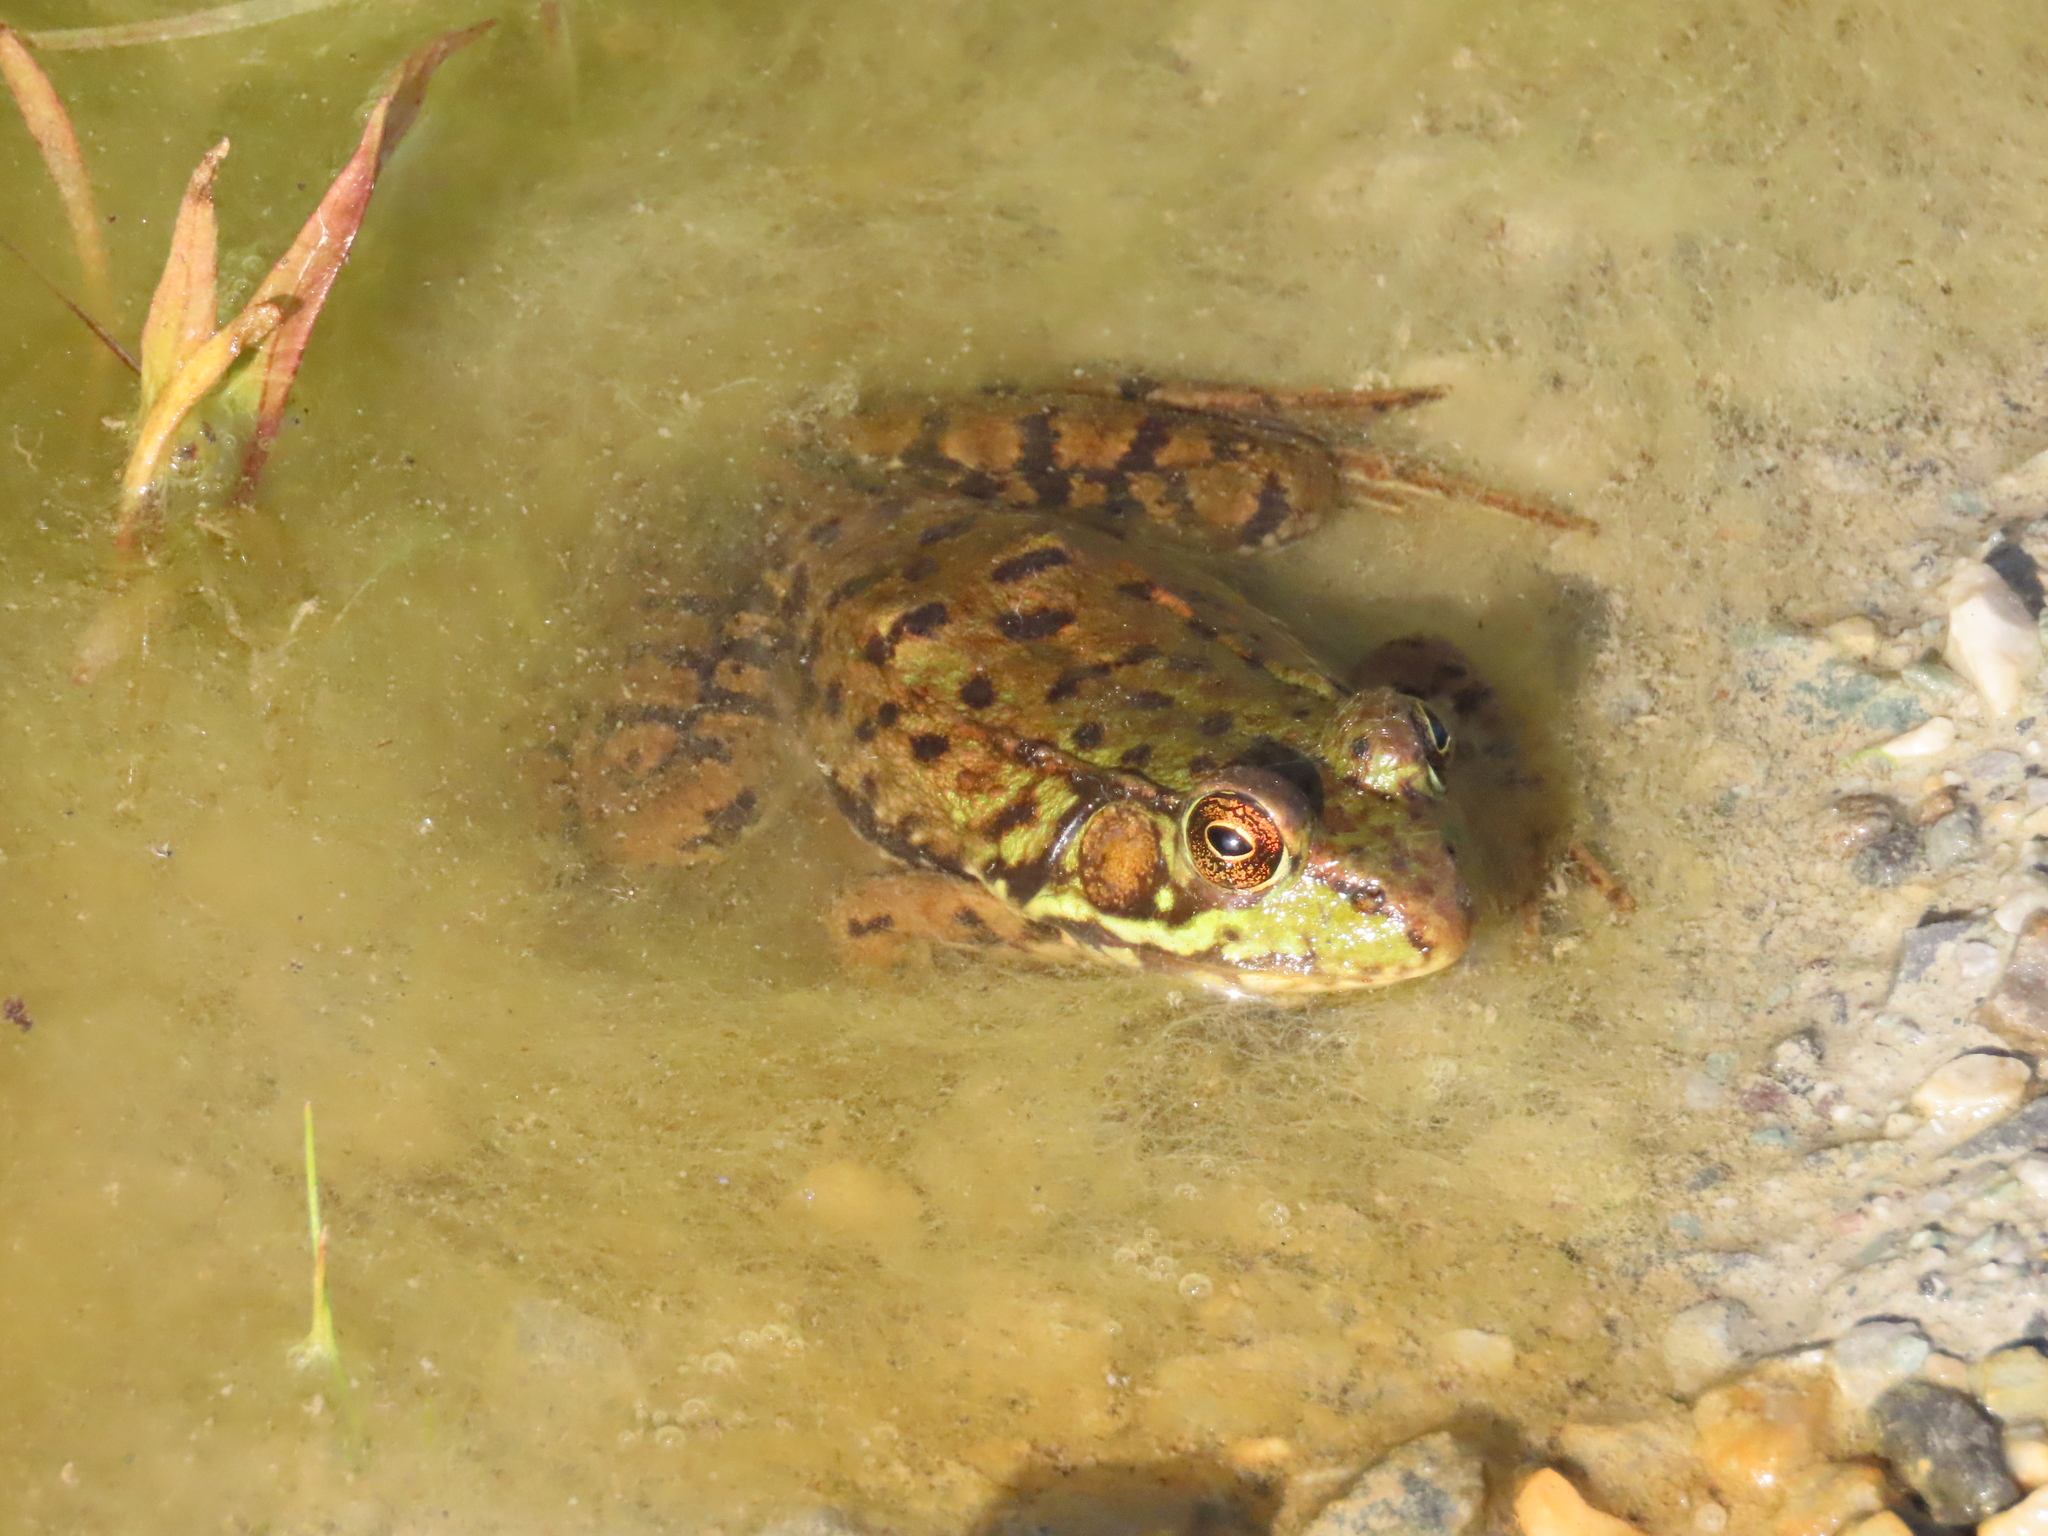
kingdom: Animalia
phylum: Chordata
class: Amphibia
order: Anura
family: Ranidae
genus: Lithobates
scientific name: Lithobates clamitans
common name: Green frog
